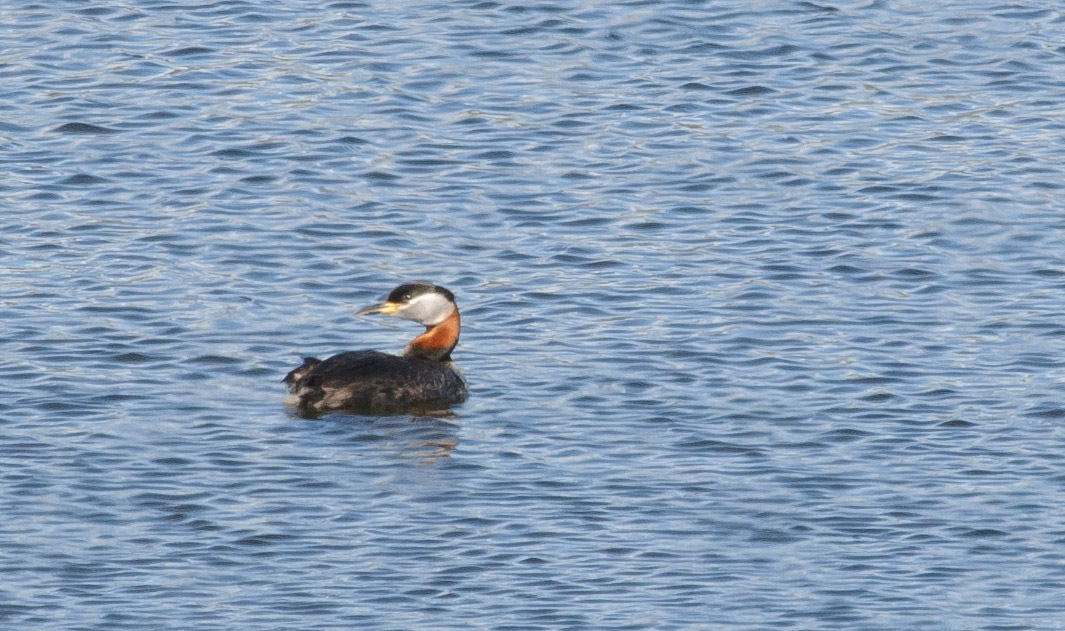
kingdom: Animalia
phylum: Chordata
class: Aves
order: Podicipediformes
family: Podicipedidae
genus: Podiceps
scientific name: Podiceps grisegena
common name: Red-necked grebe
